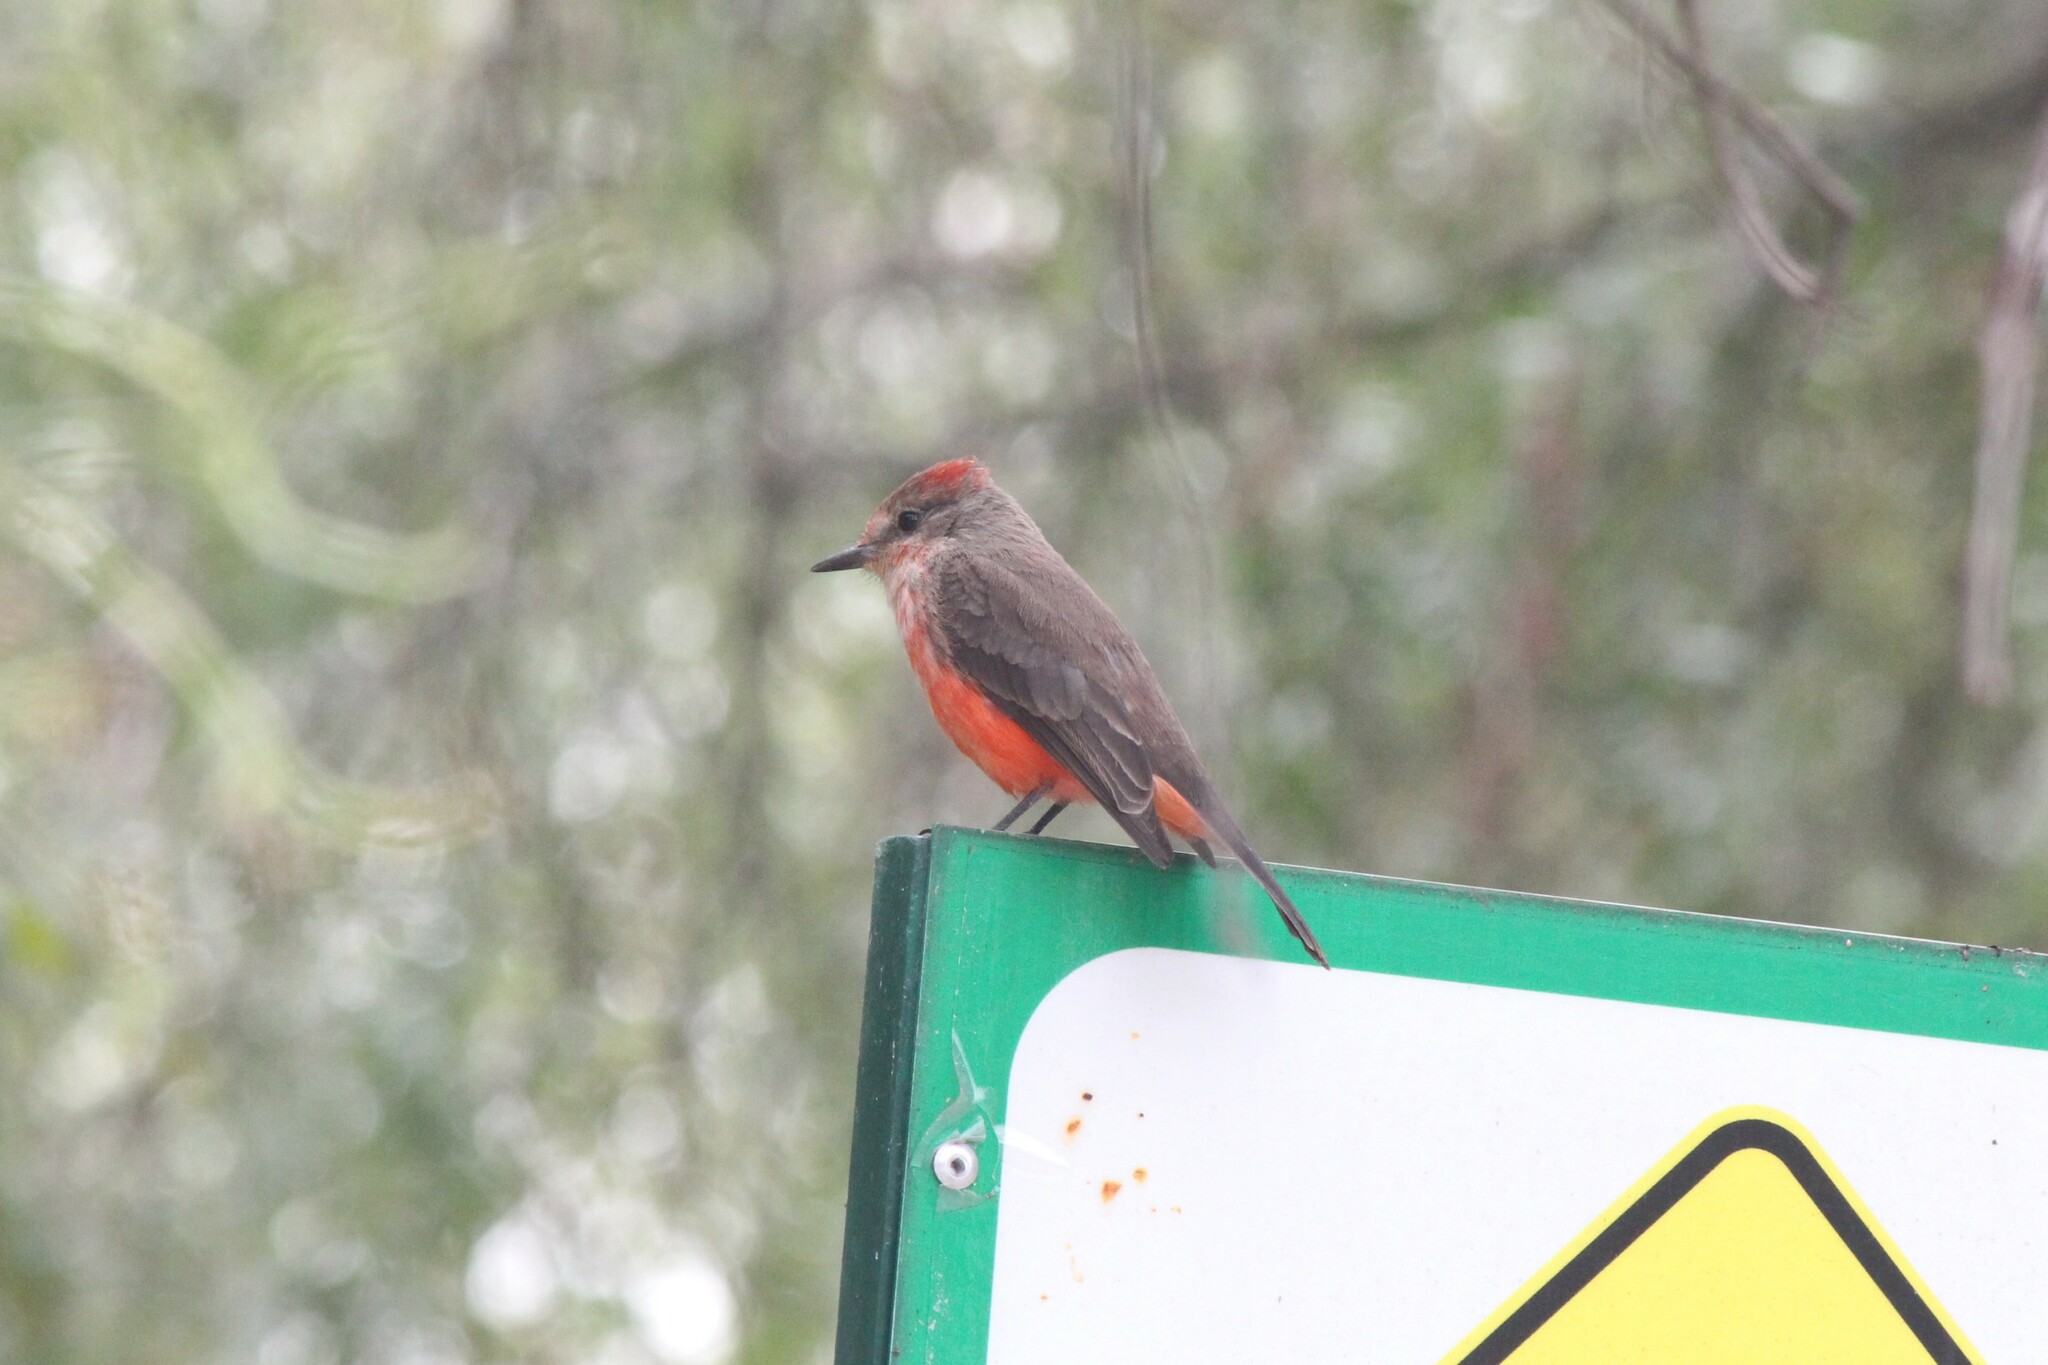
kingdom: Animalia
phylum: Chordata
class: Aves
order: Passeriformes
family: Tyrannidae
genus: Pyrocephalus
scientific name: Pyrocephalus rubinus
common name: Vermilion flycatcher
